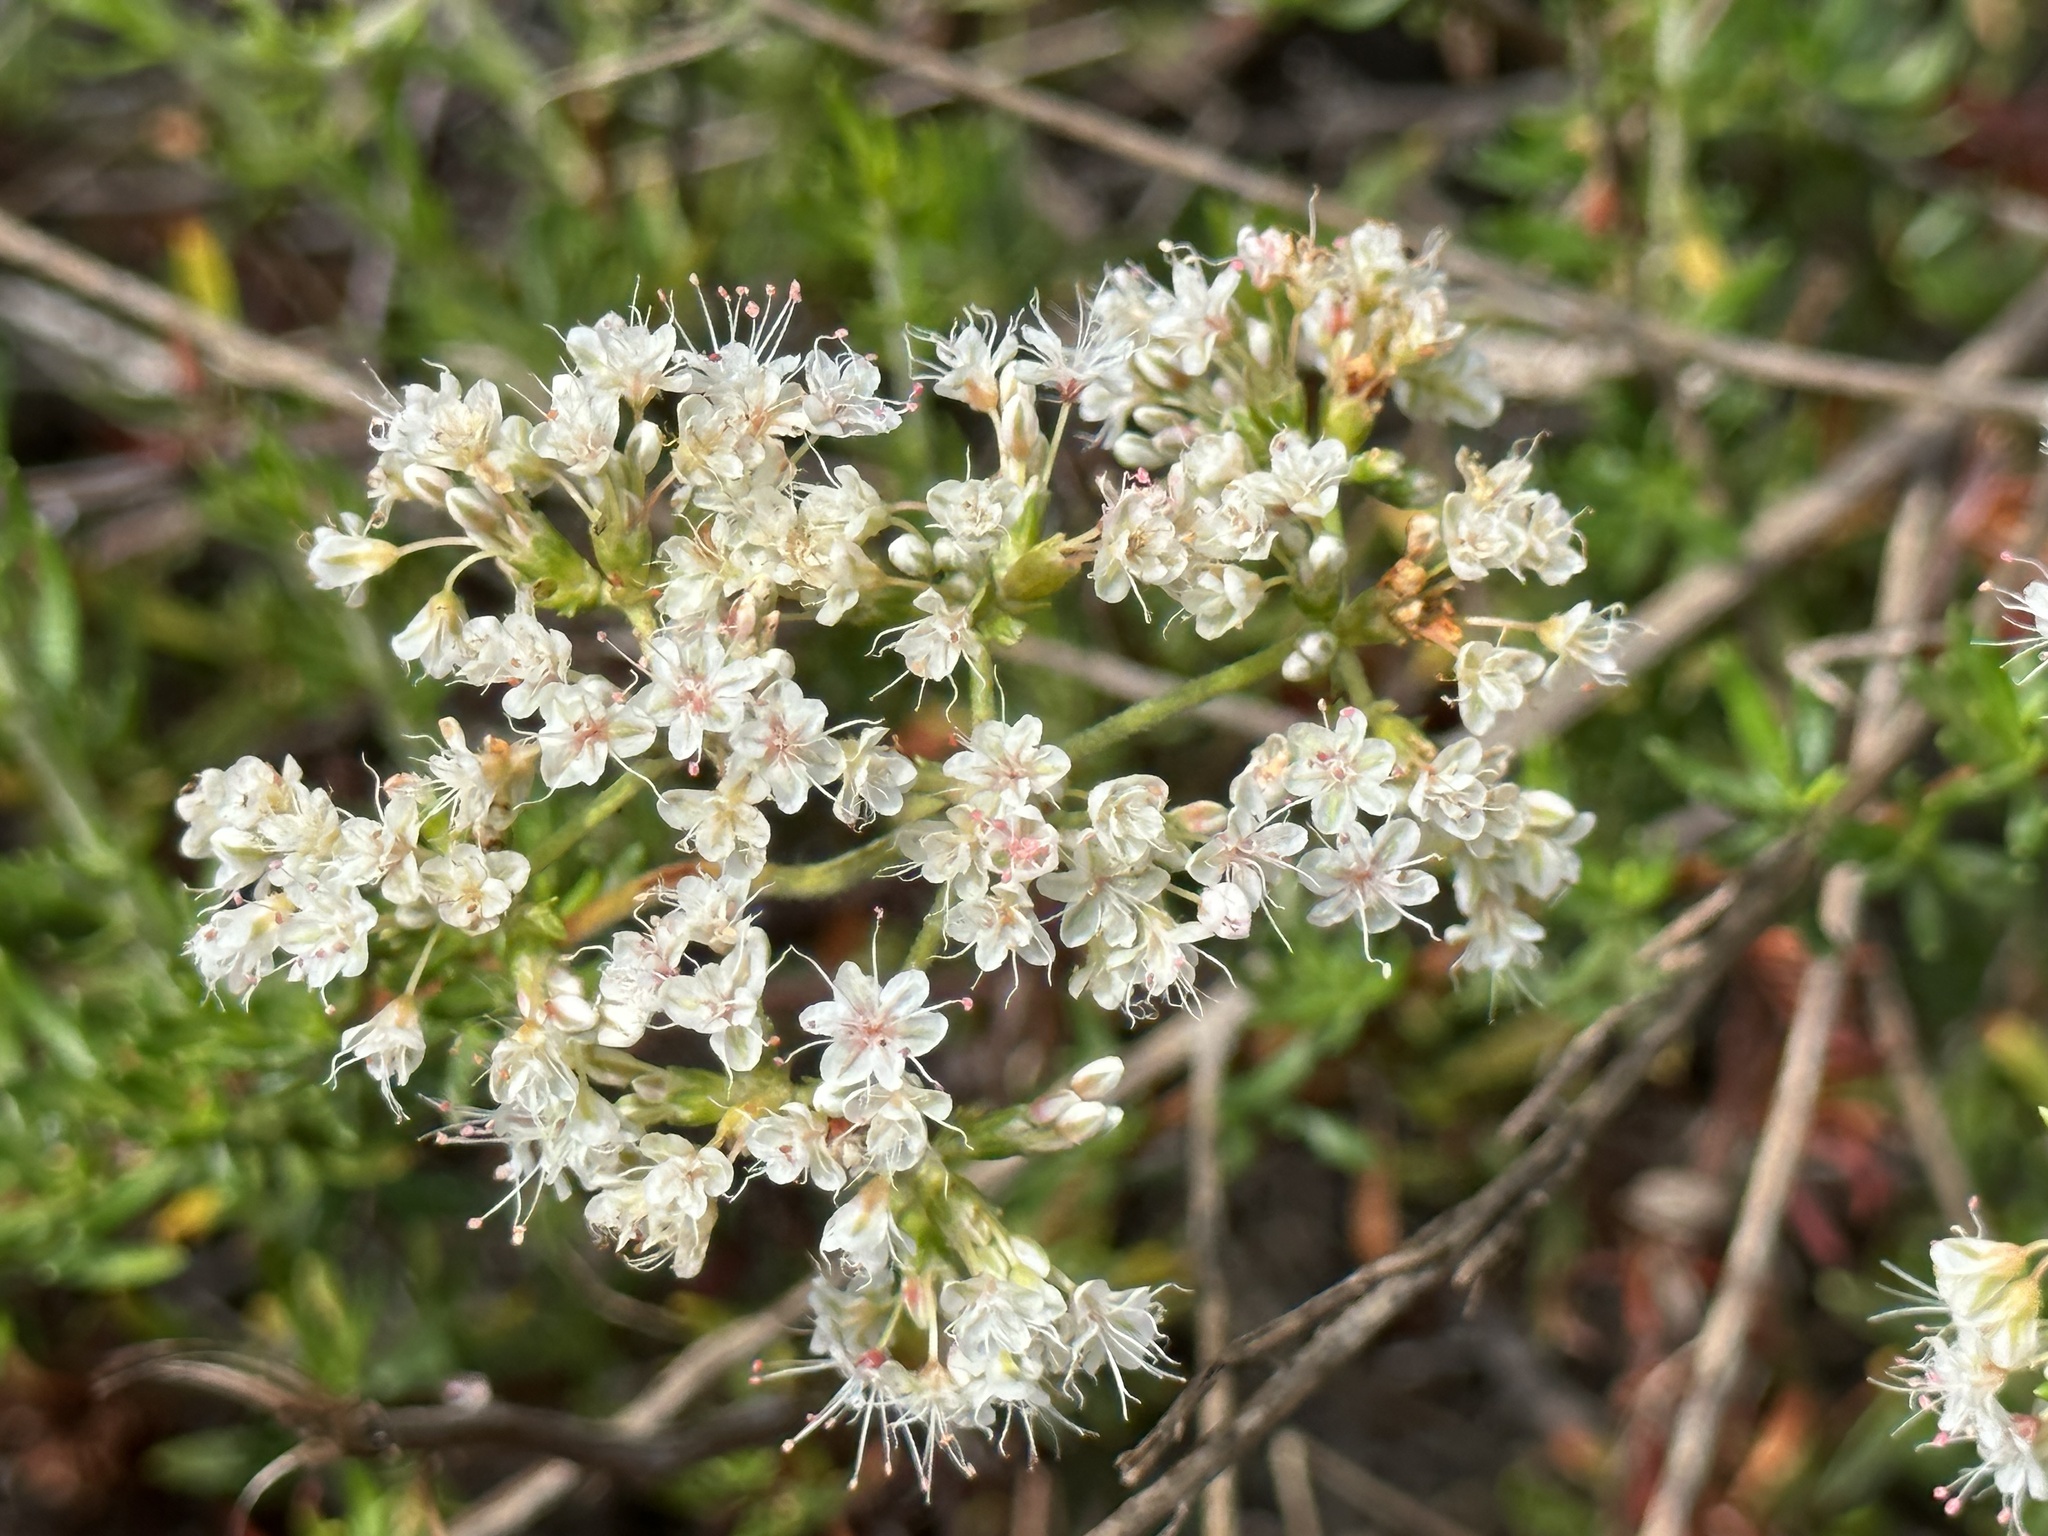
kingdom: Plantae
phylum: Tracheophyta
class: Magnoliopsida
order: Caryophyllales
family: Polygonaceae
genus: Eriogonum
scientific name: Eriogonum fasciculatum
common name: California wild buckwheat
